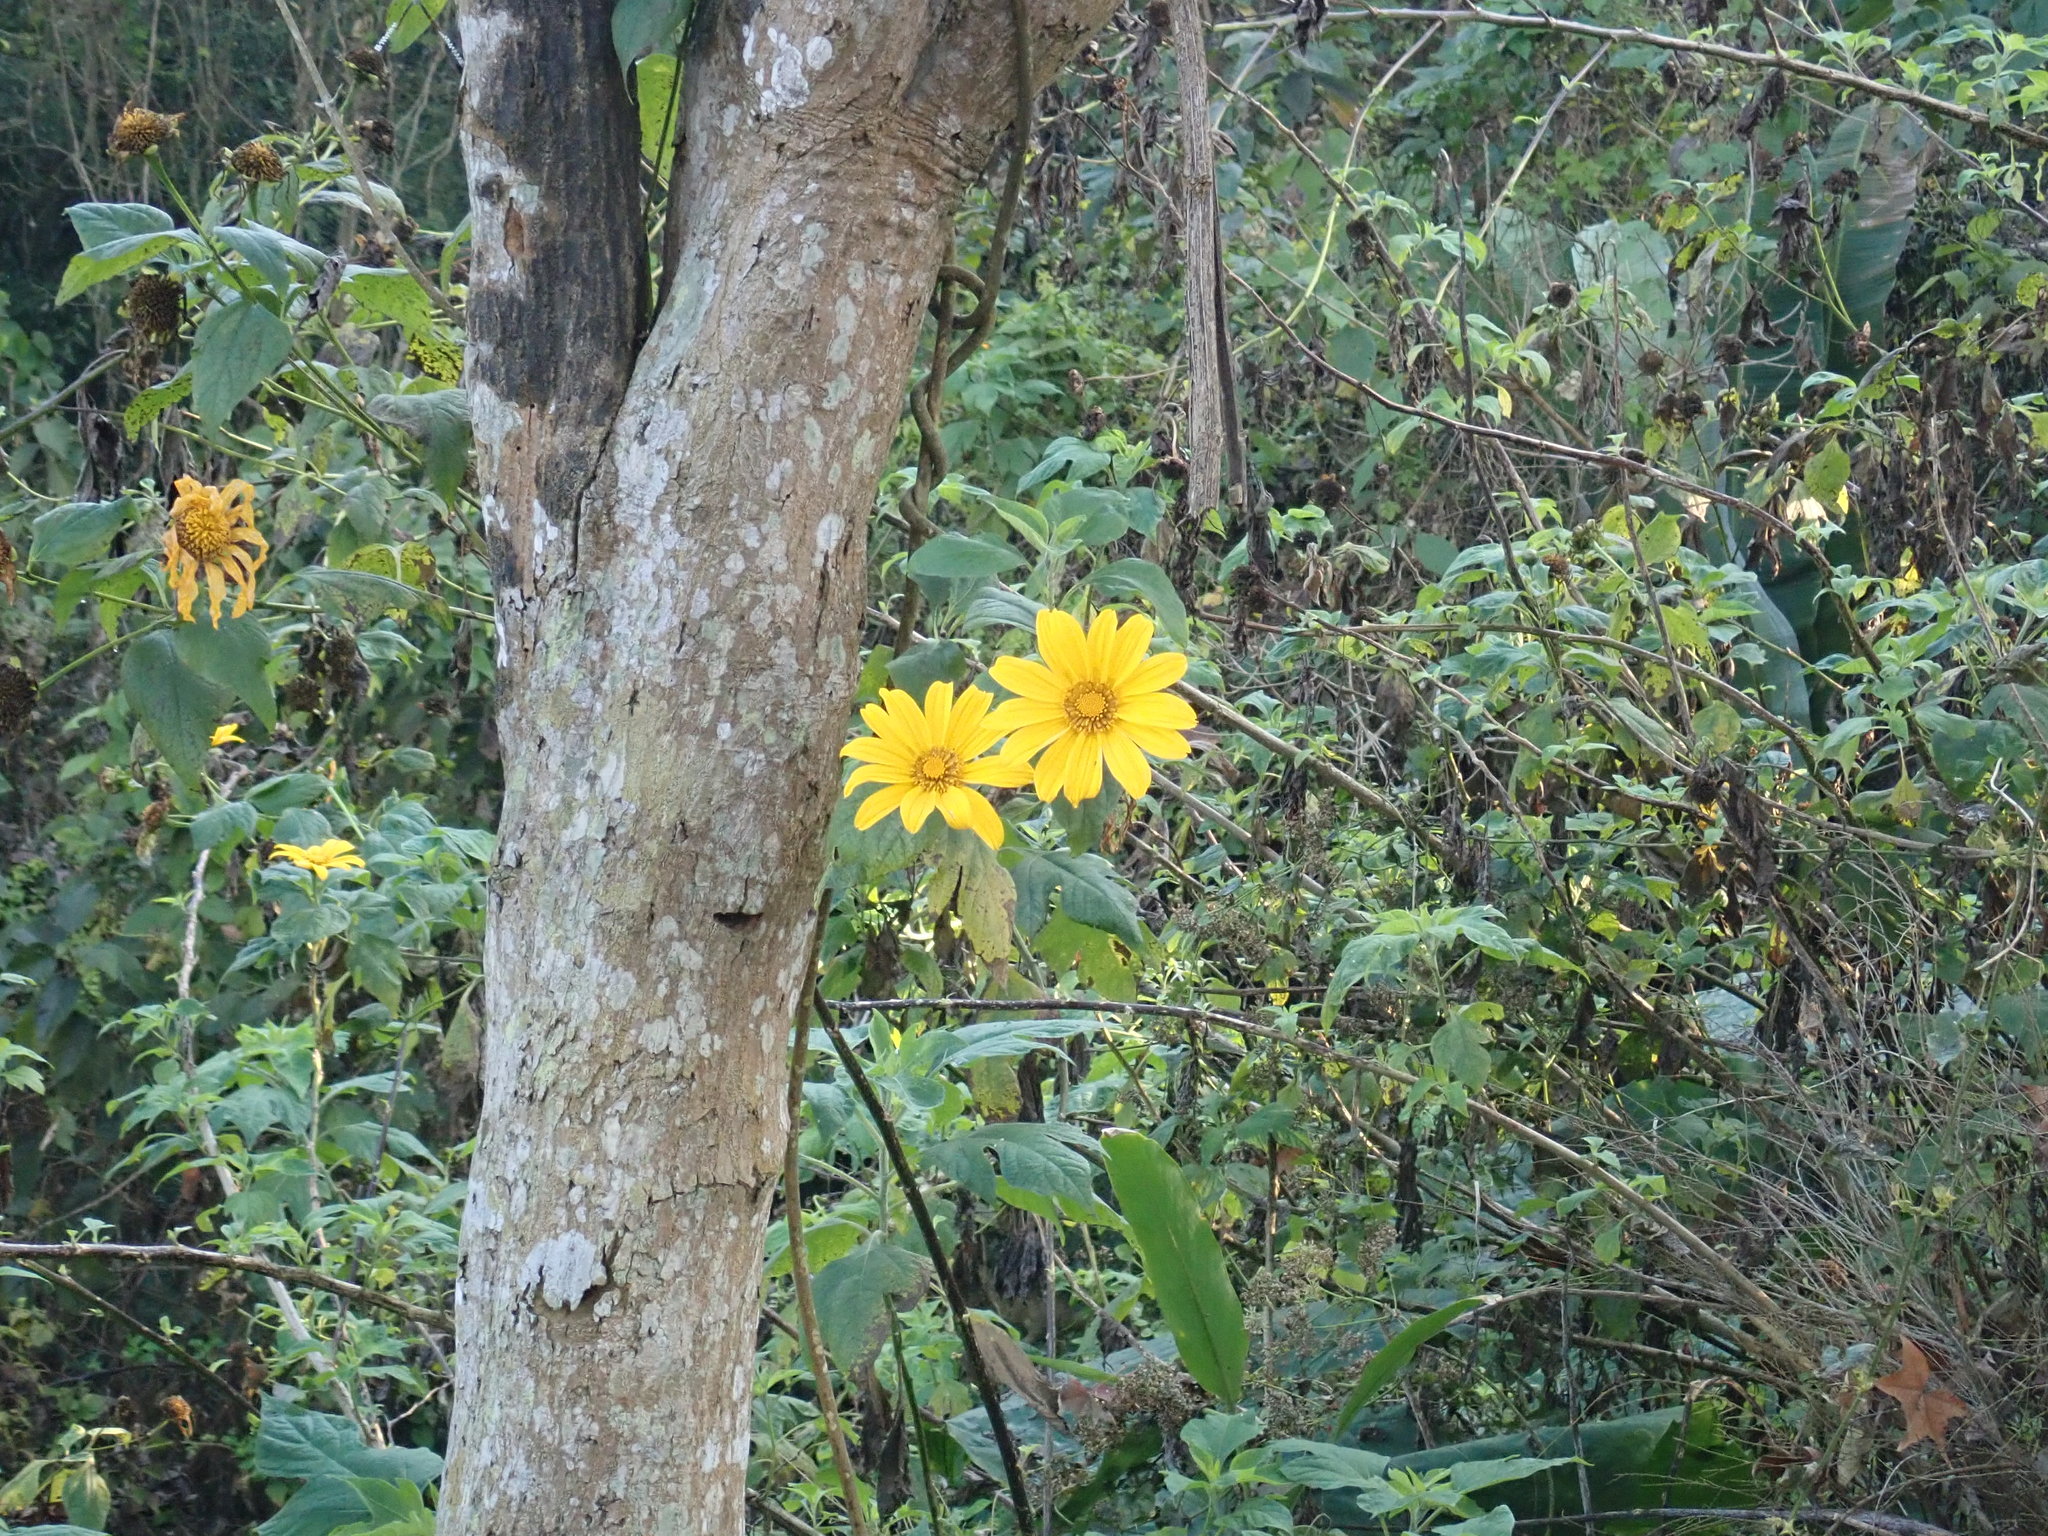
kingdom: Plantae
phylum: Tracheophyta
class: Magnoliopsida
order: Asterales
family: Asteraceae
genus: Tithonia
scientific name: Tithonia diversifolia
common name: Tree marigold
